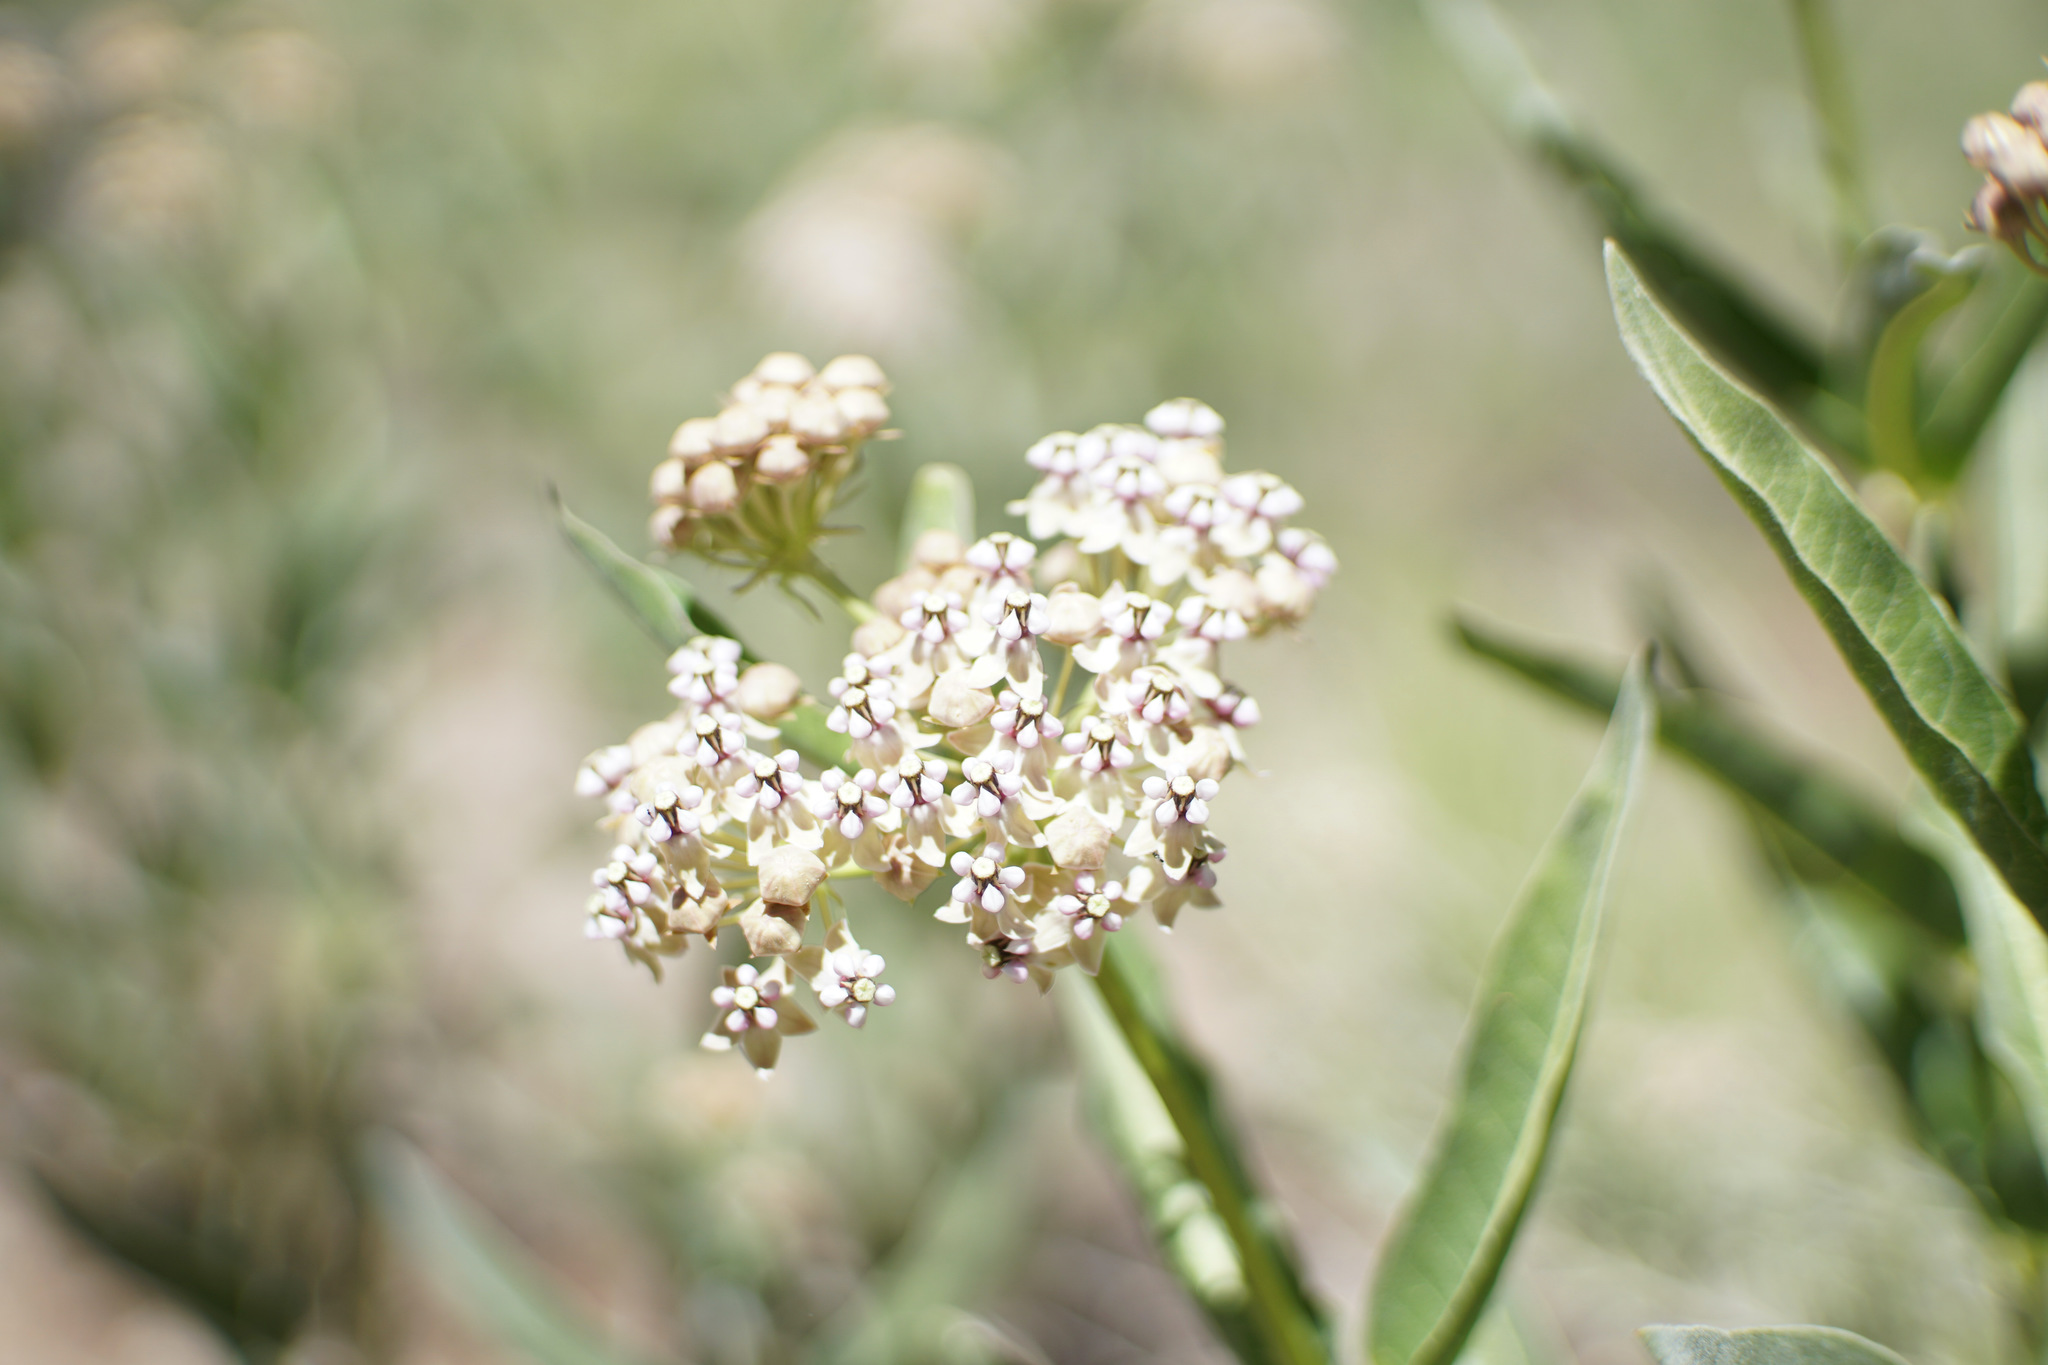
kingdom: Plantae
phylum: Tracheophyta
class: Magnoliopsida
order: Gentianales
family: Apocynaceae
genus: Asclepias
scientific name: Asclepias eriocarpa
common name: Indian milkweed
